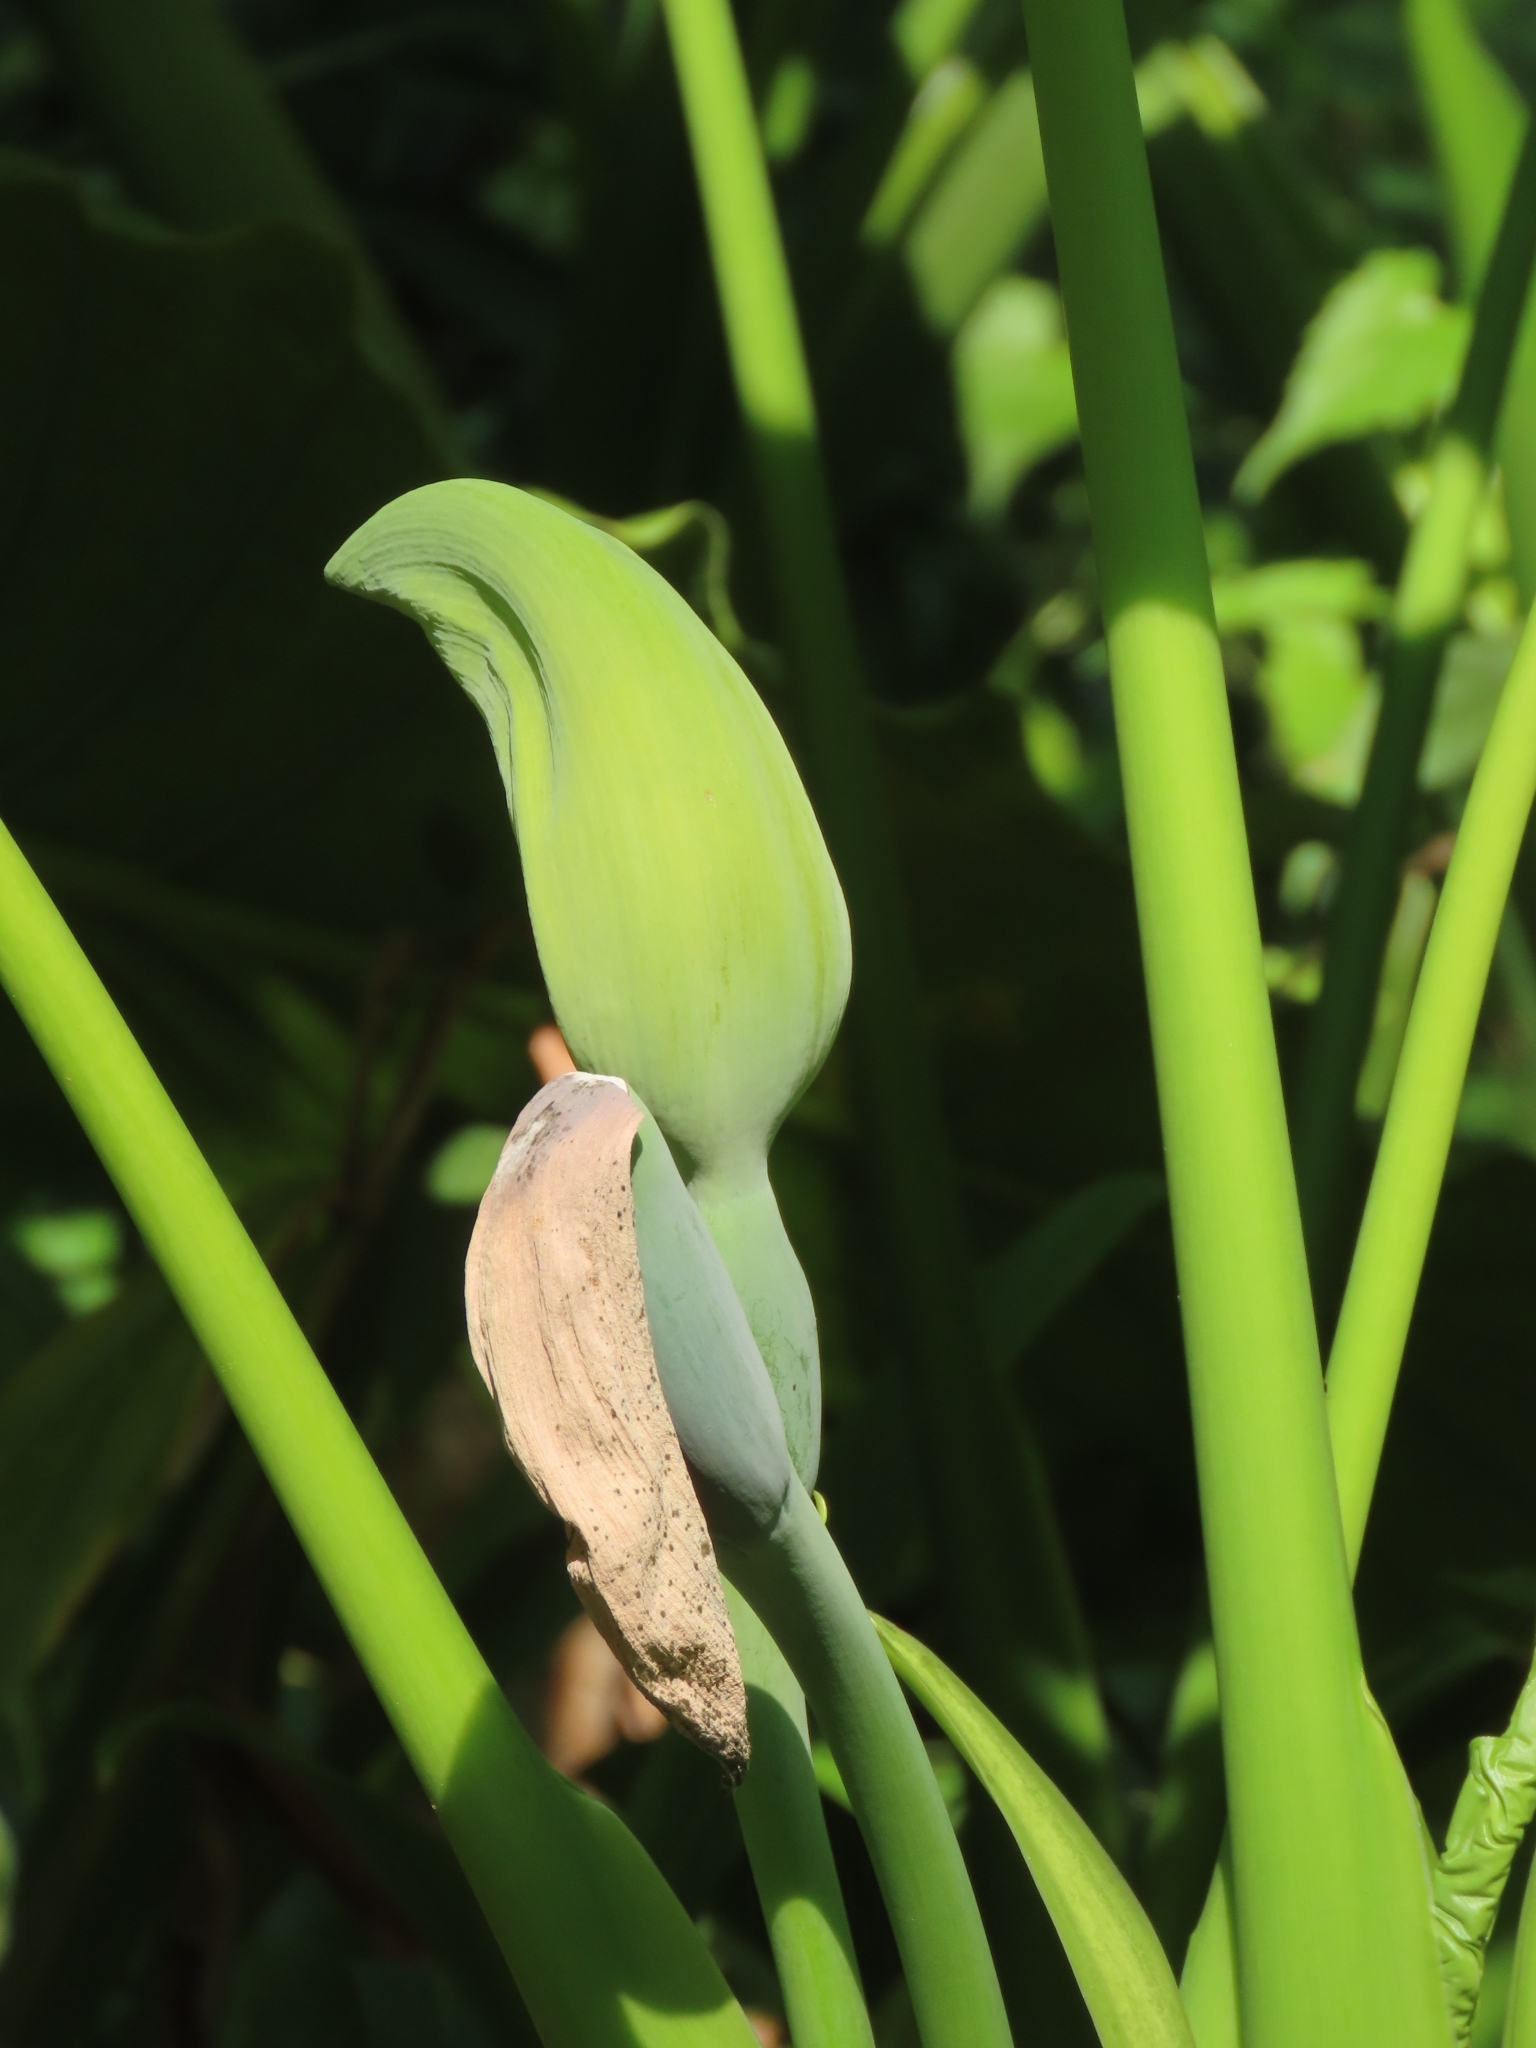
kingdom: Plantae
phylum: Tracheophyta
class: Liliopsida
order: Alismatales
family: Araceae
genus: Alocasia
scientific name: Alocasia odora
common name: Asian taro
